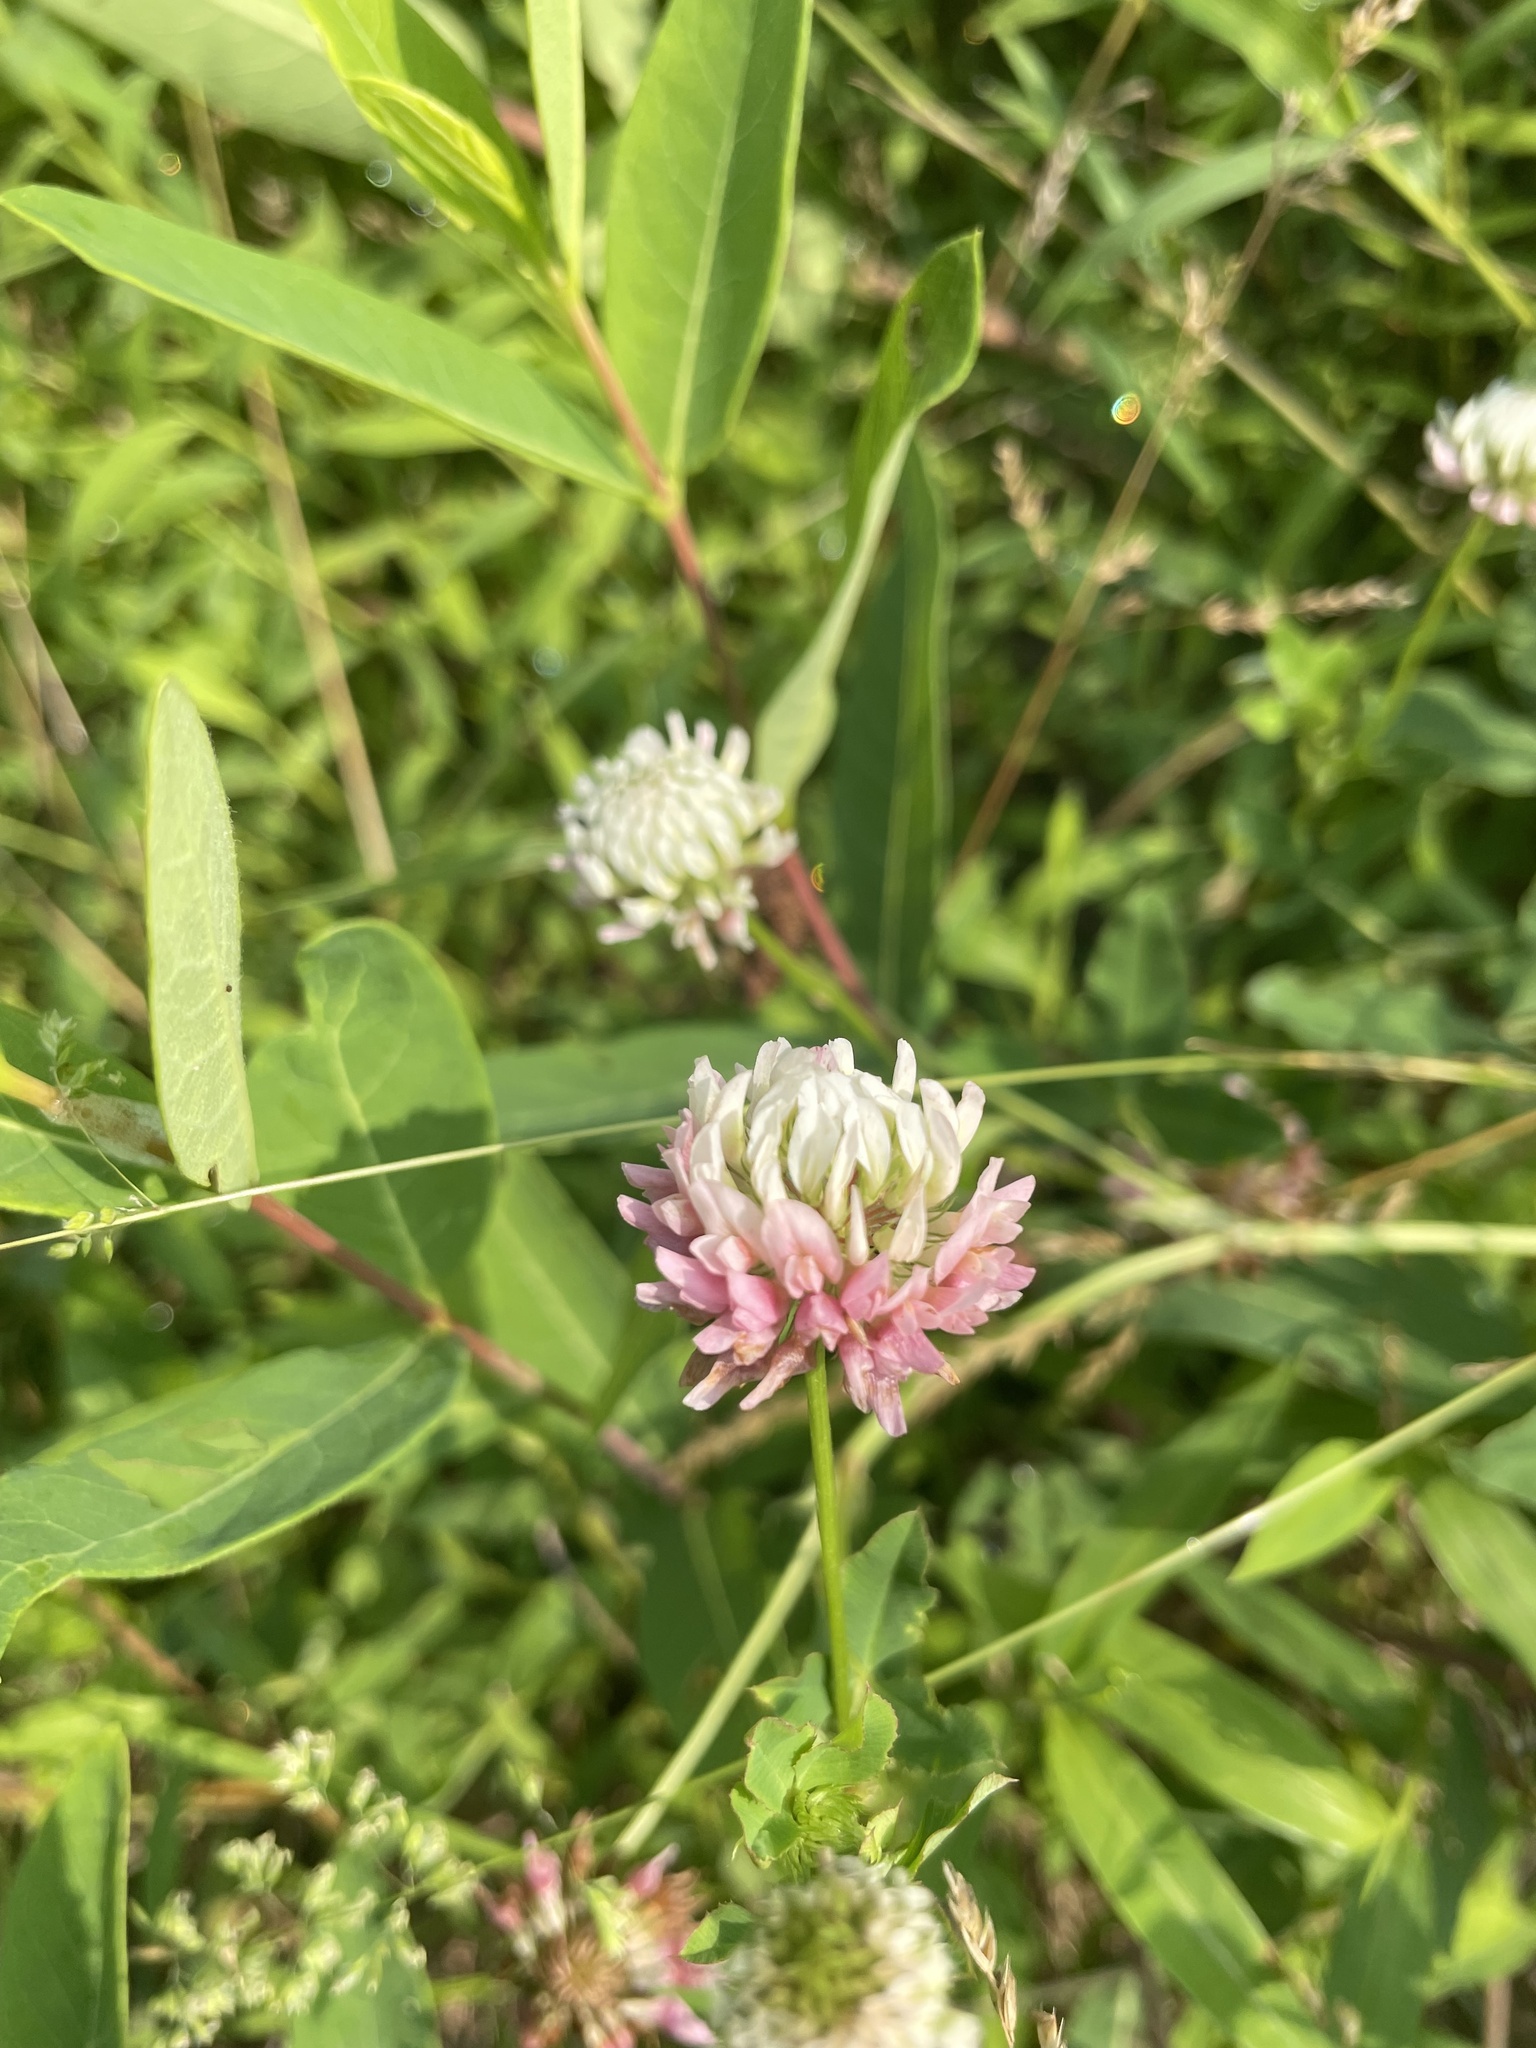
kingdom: Plantae
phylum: Tracheophyta
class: Magnoliopsida
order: Fabales
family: Fabaceae
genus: Trifolium
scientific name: Trifolium hybridum
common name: Alsike clover
